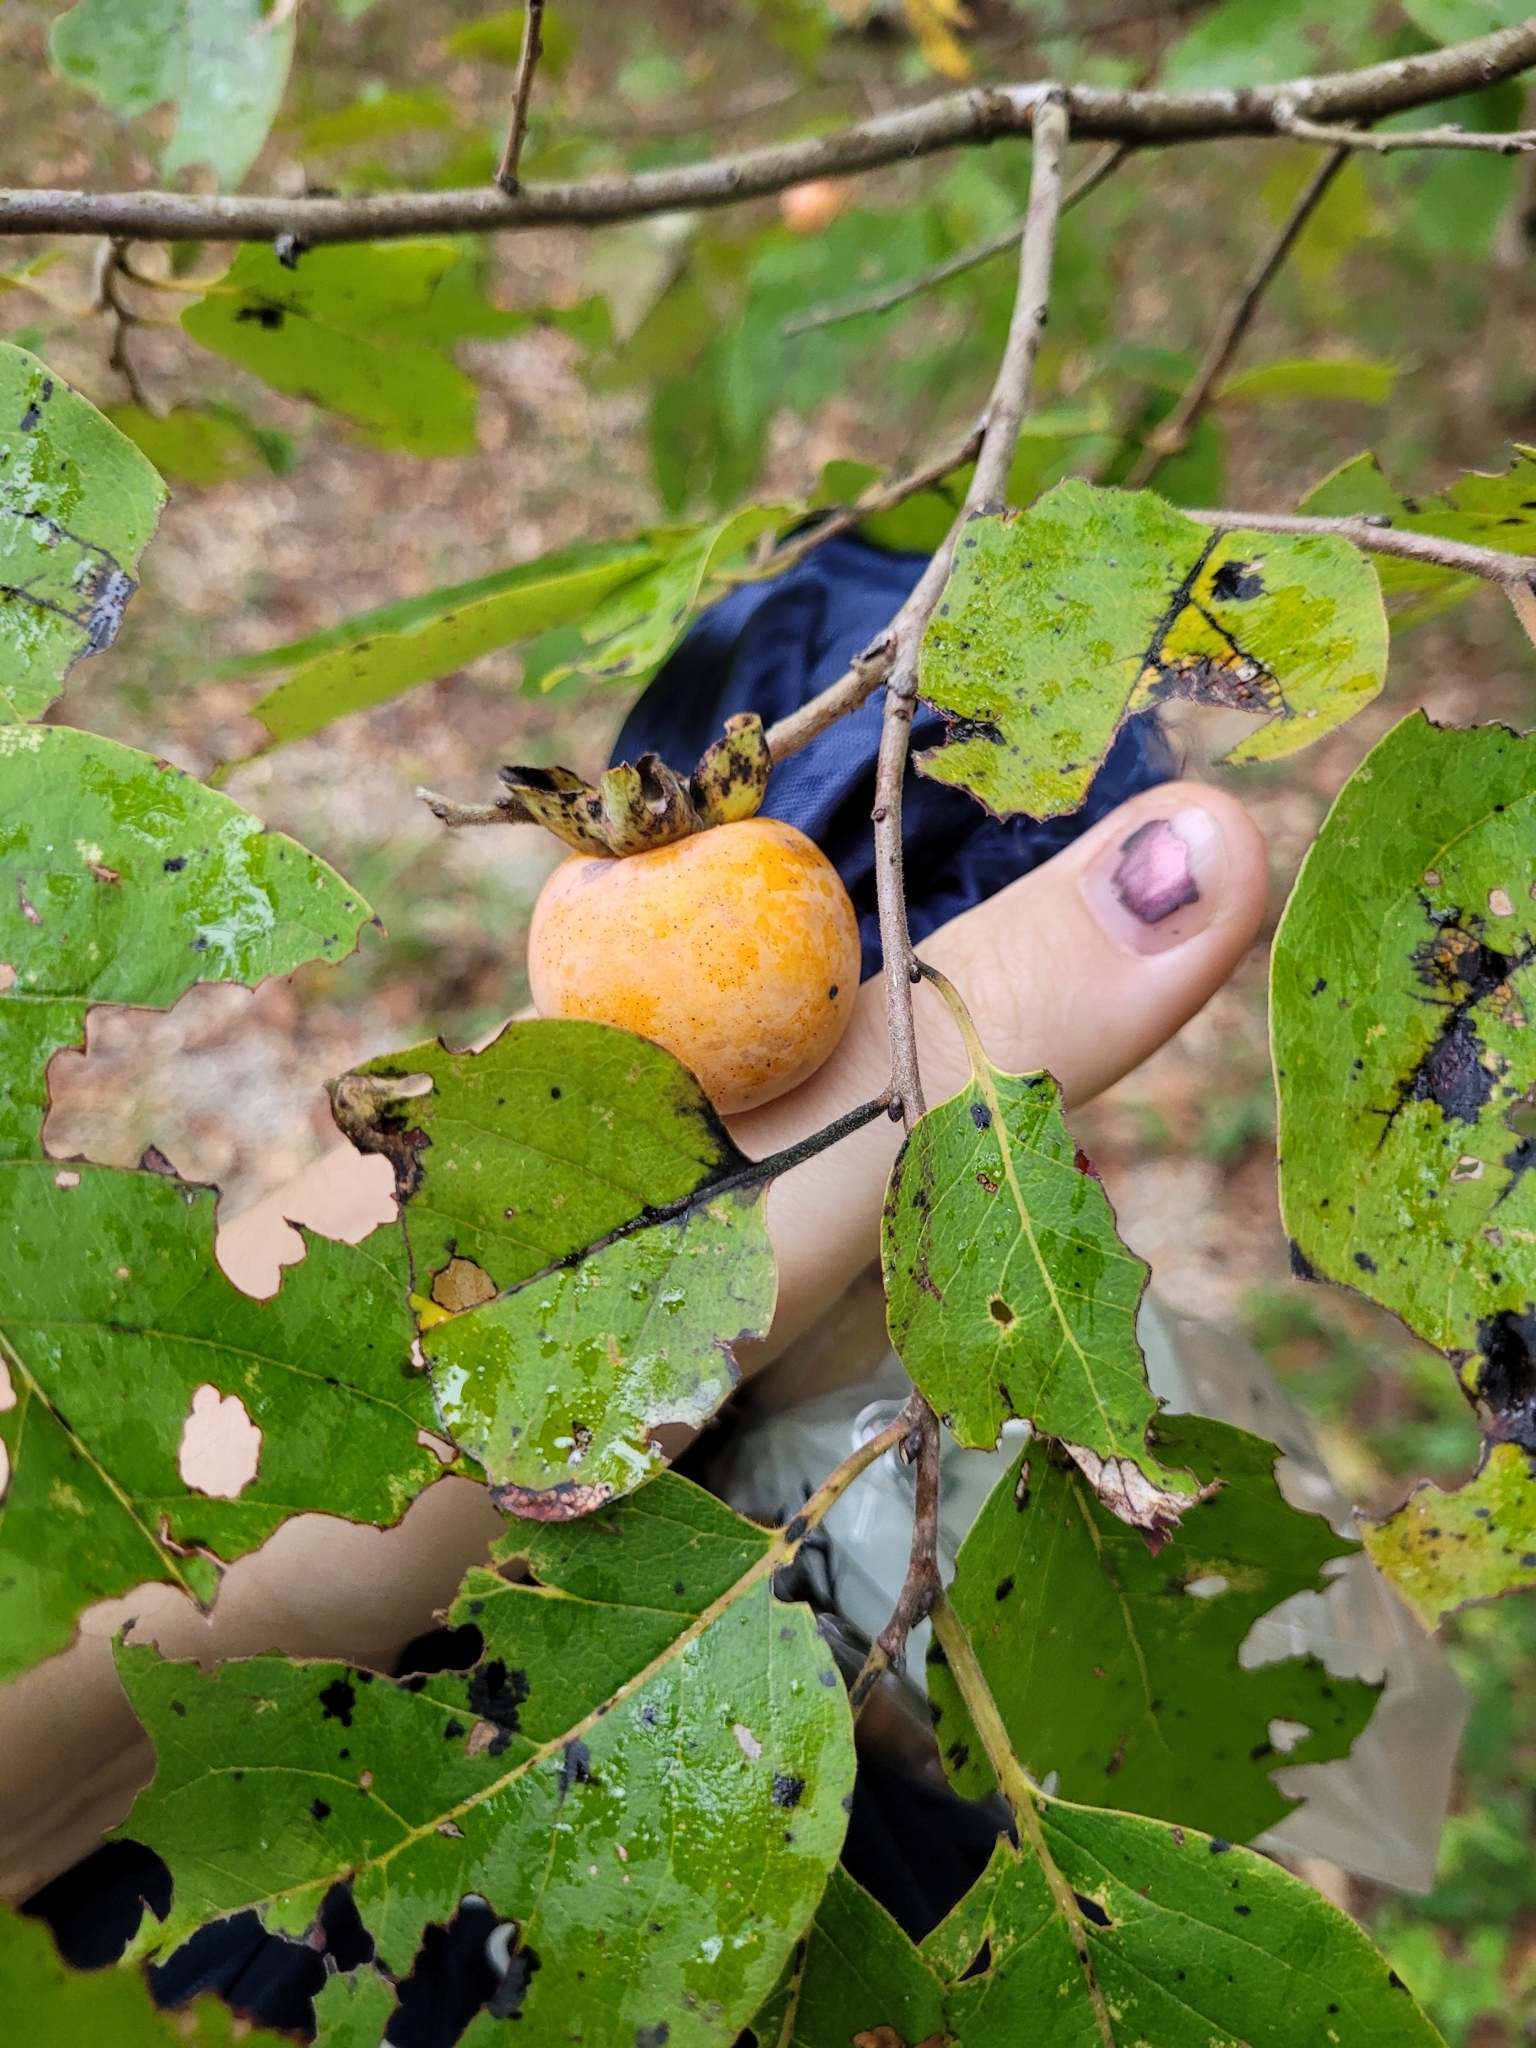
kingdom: Plantae
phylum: Tracheophyta
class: Magnoliopsida
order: Ericales
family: Ebenaceae
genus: Diospyros
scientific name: Diospyros virginiana
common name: Persimmon
